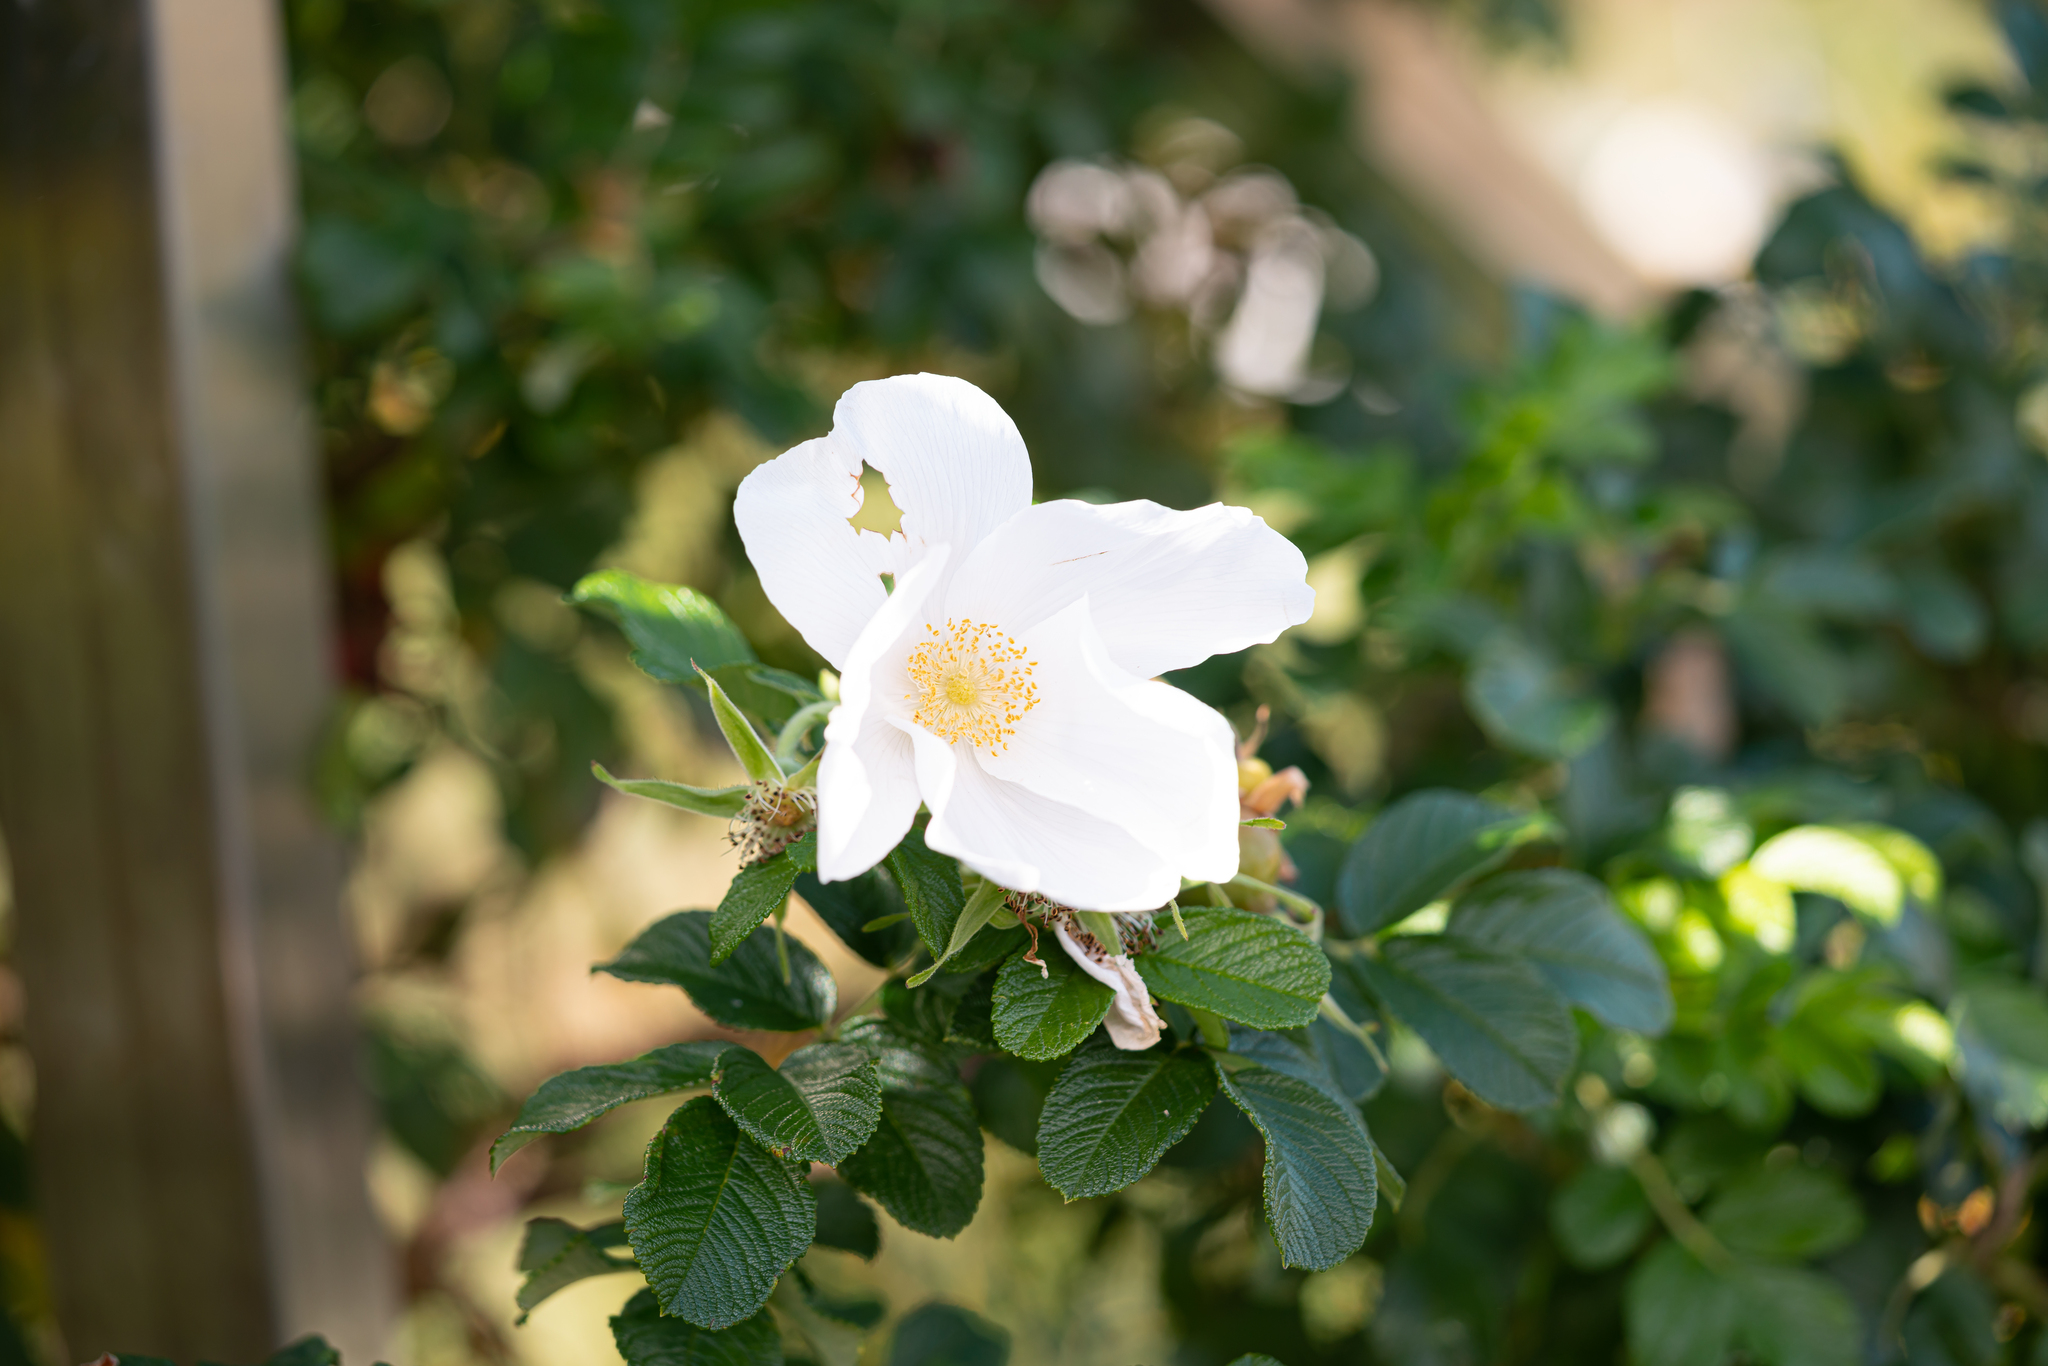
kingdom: Plantae
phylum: Tracheophyta
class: Magnoliopsida
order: Rosales
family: Rosaceae
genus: Rosa
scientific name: Rosa rugosa
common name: Japanese rose
